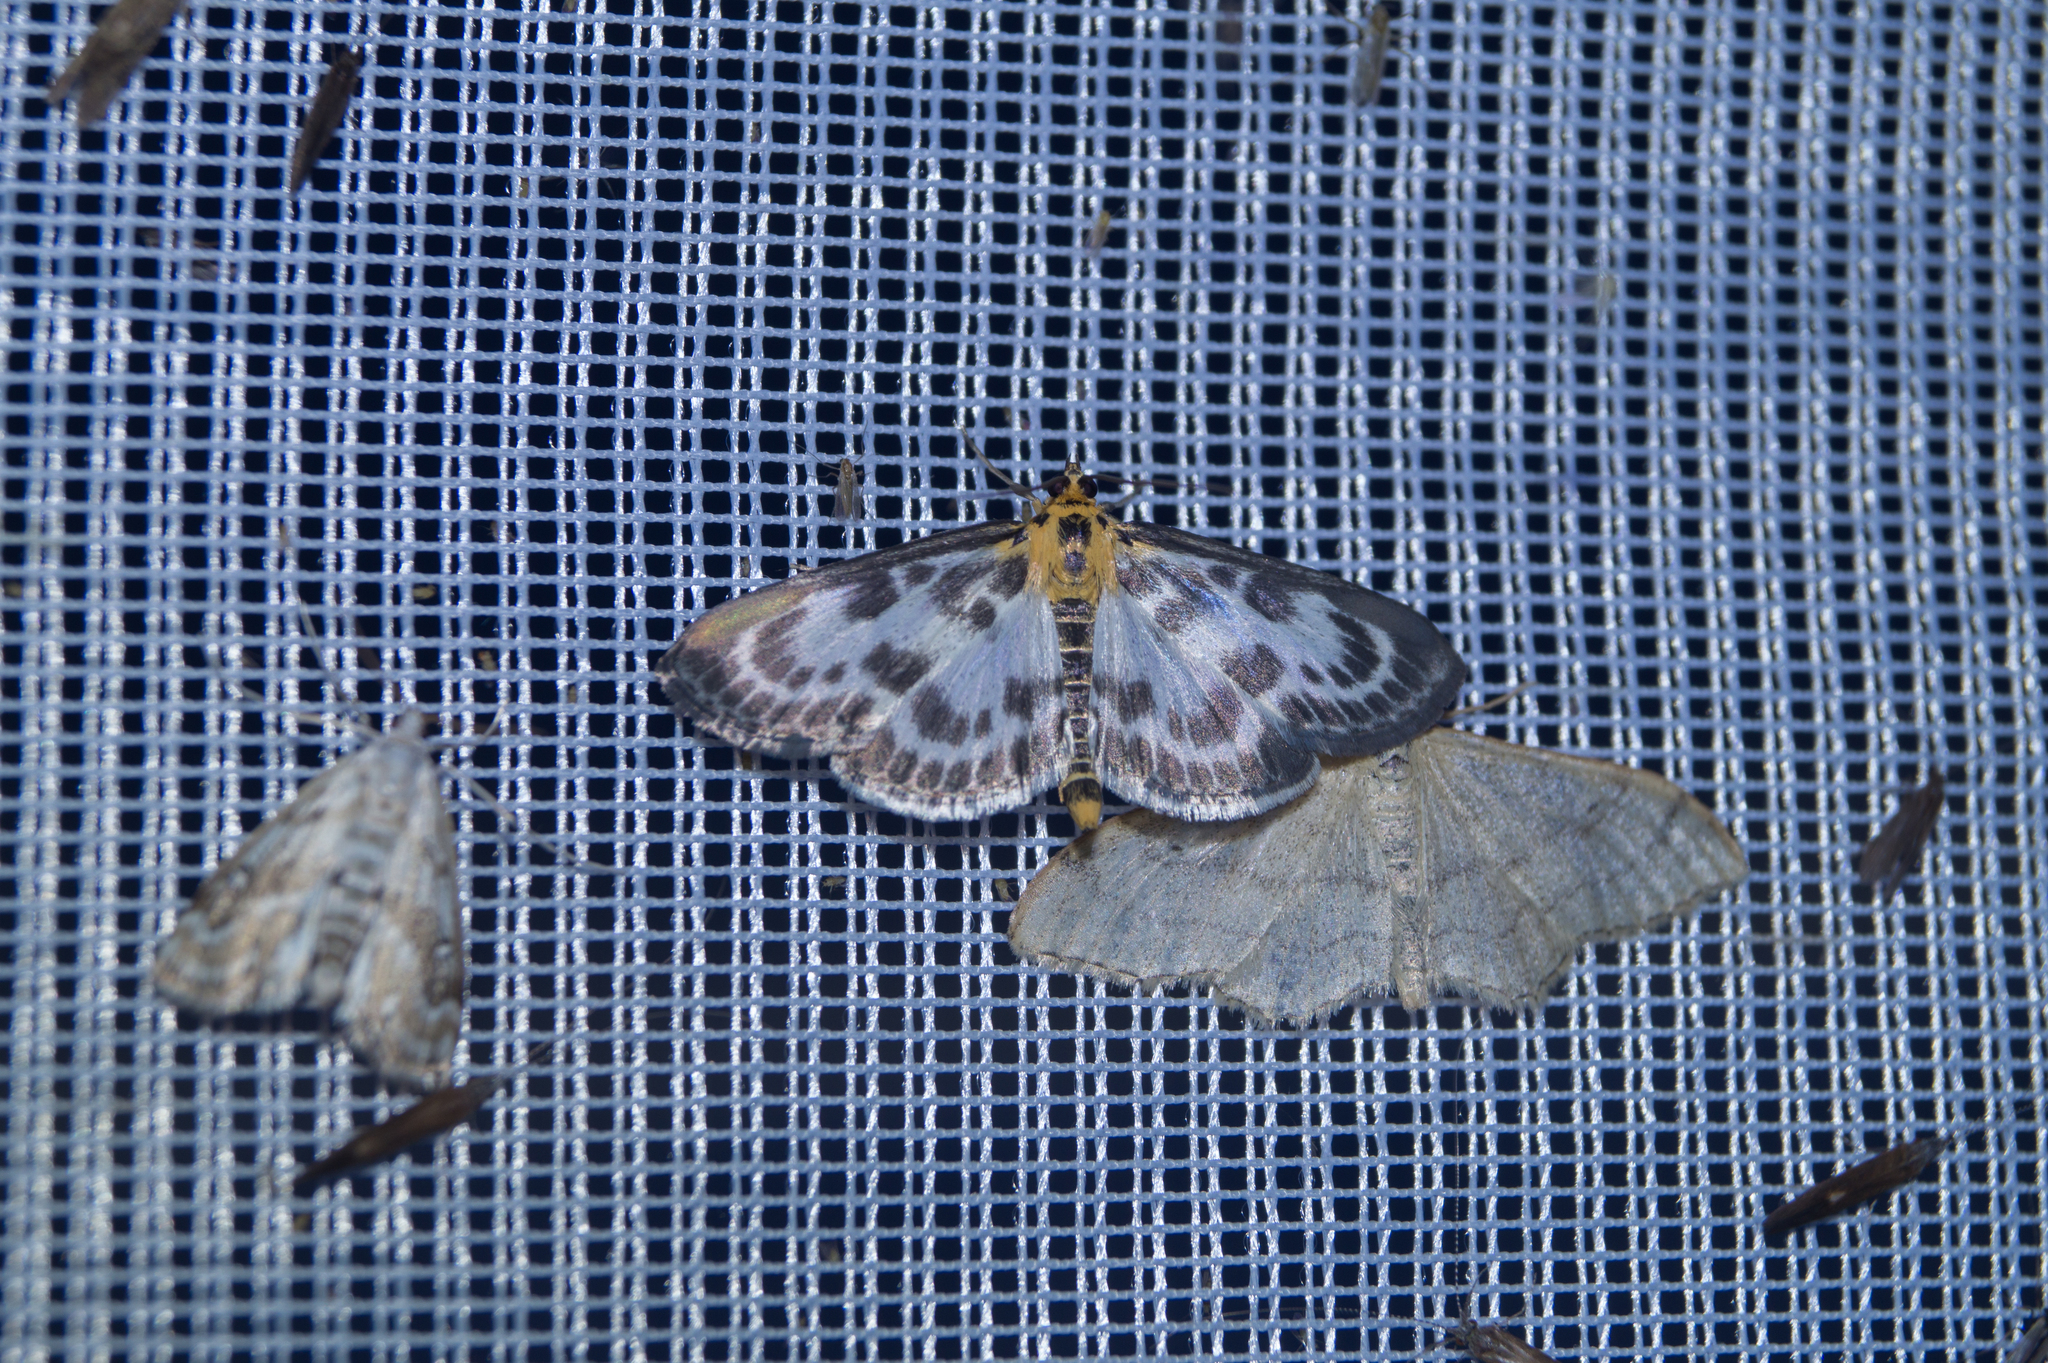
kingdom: Animalia
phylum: Arthropoda
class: Insecta
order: Lepidoptera
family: Crambidae
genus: Anania
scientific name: Anania hortulata
